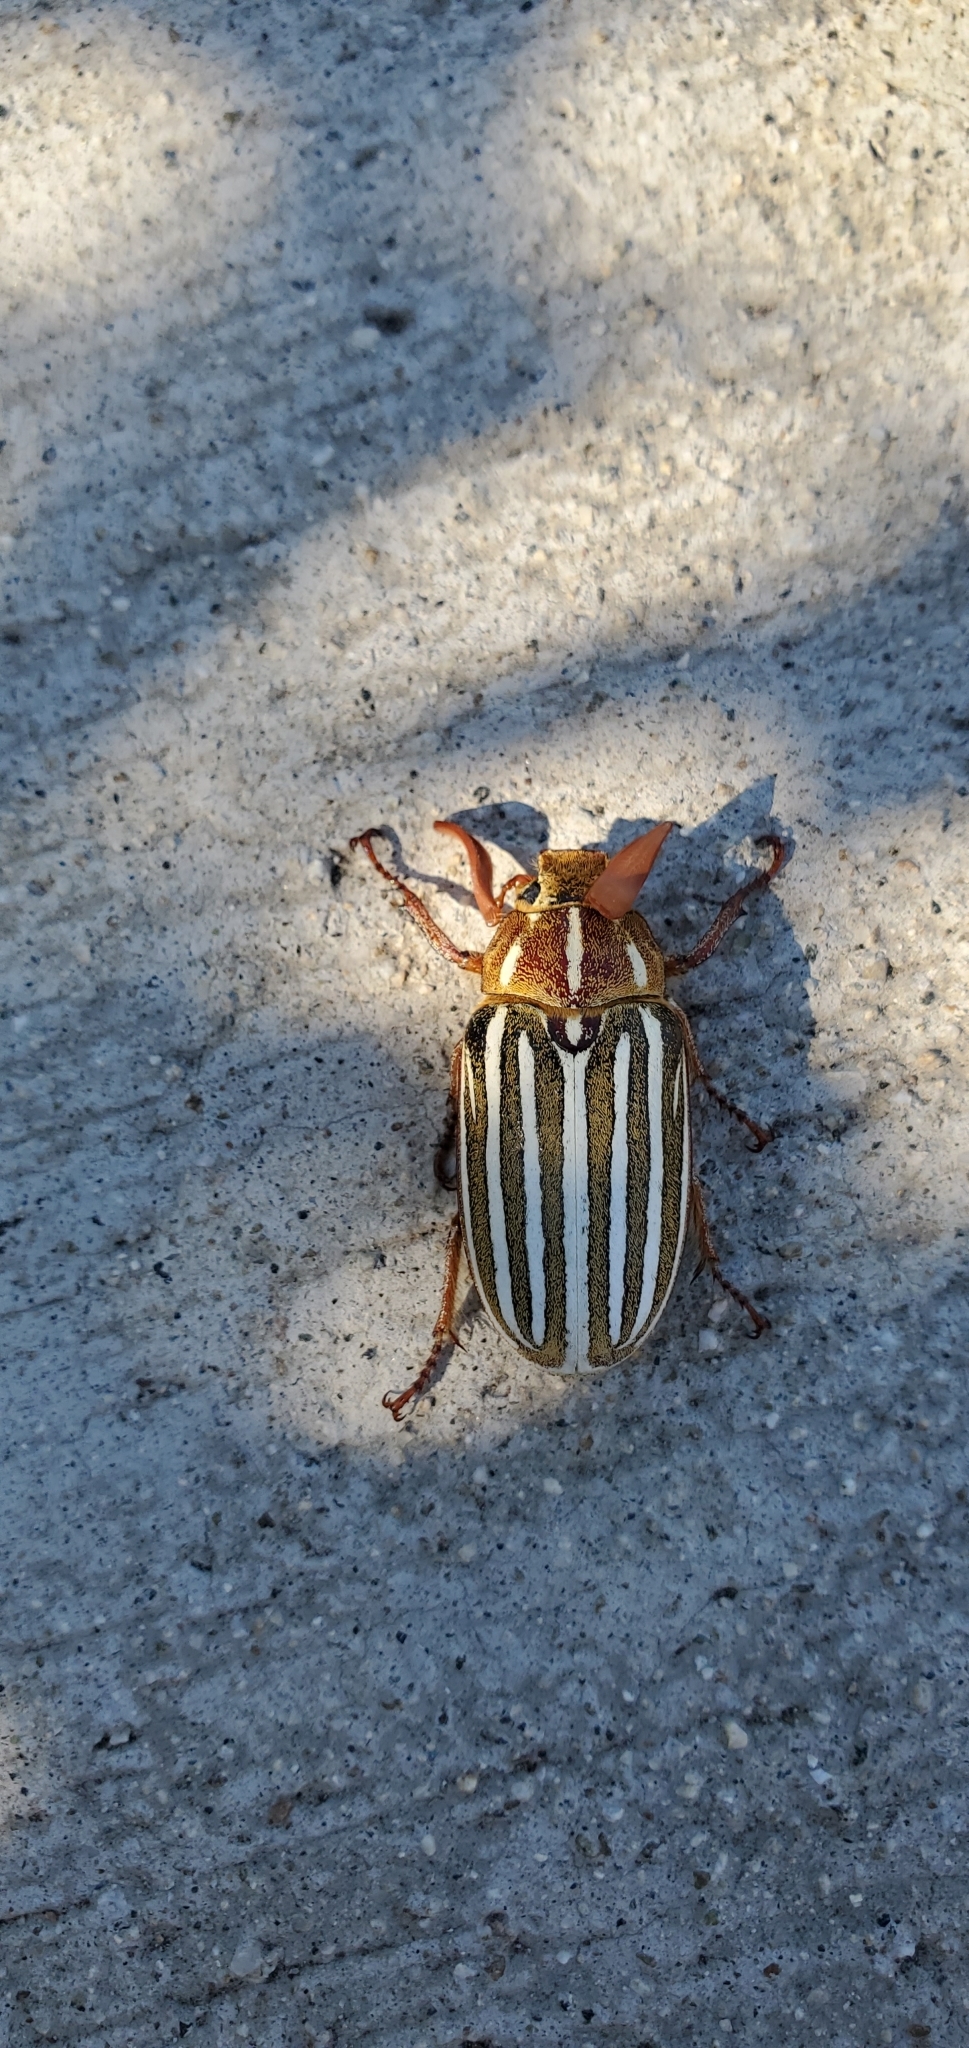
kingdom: Animalia
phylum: Arthropoda
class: Insecta
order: Coleoptera
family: Scarabaeidae
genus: Polyphylla
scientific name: Polyphylla decemlineata
